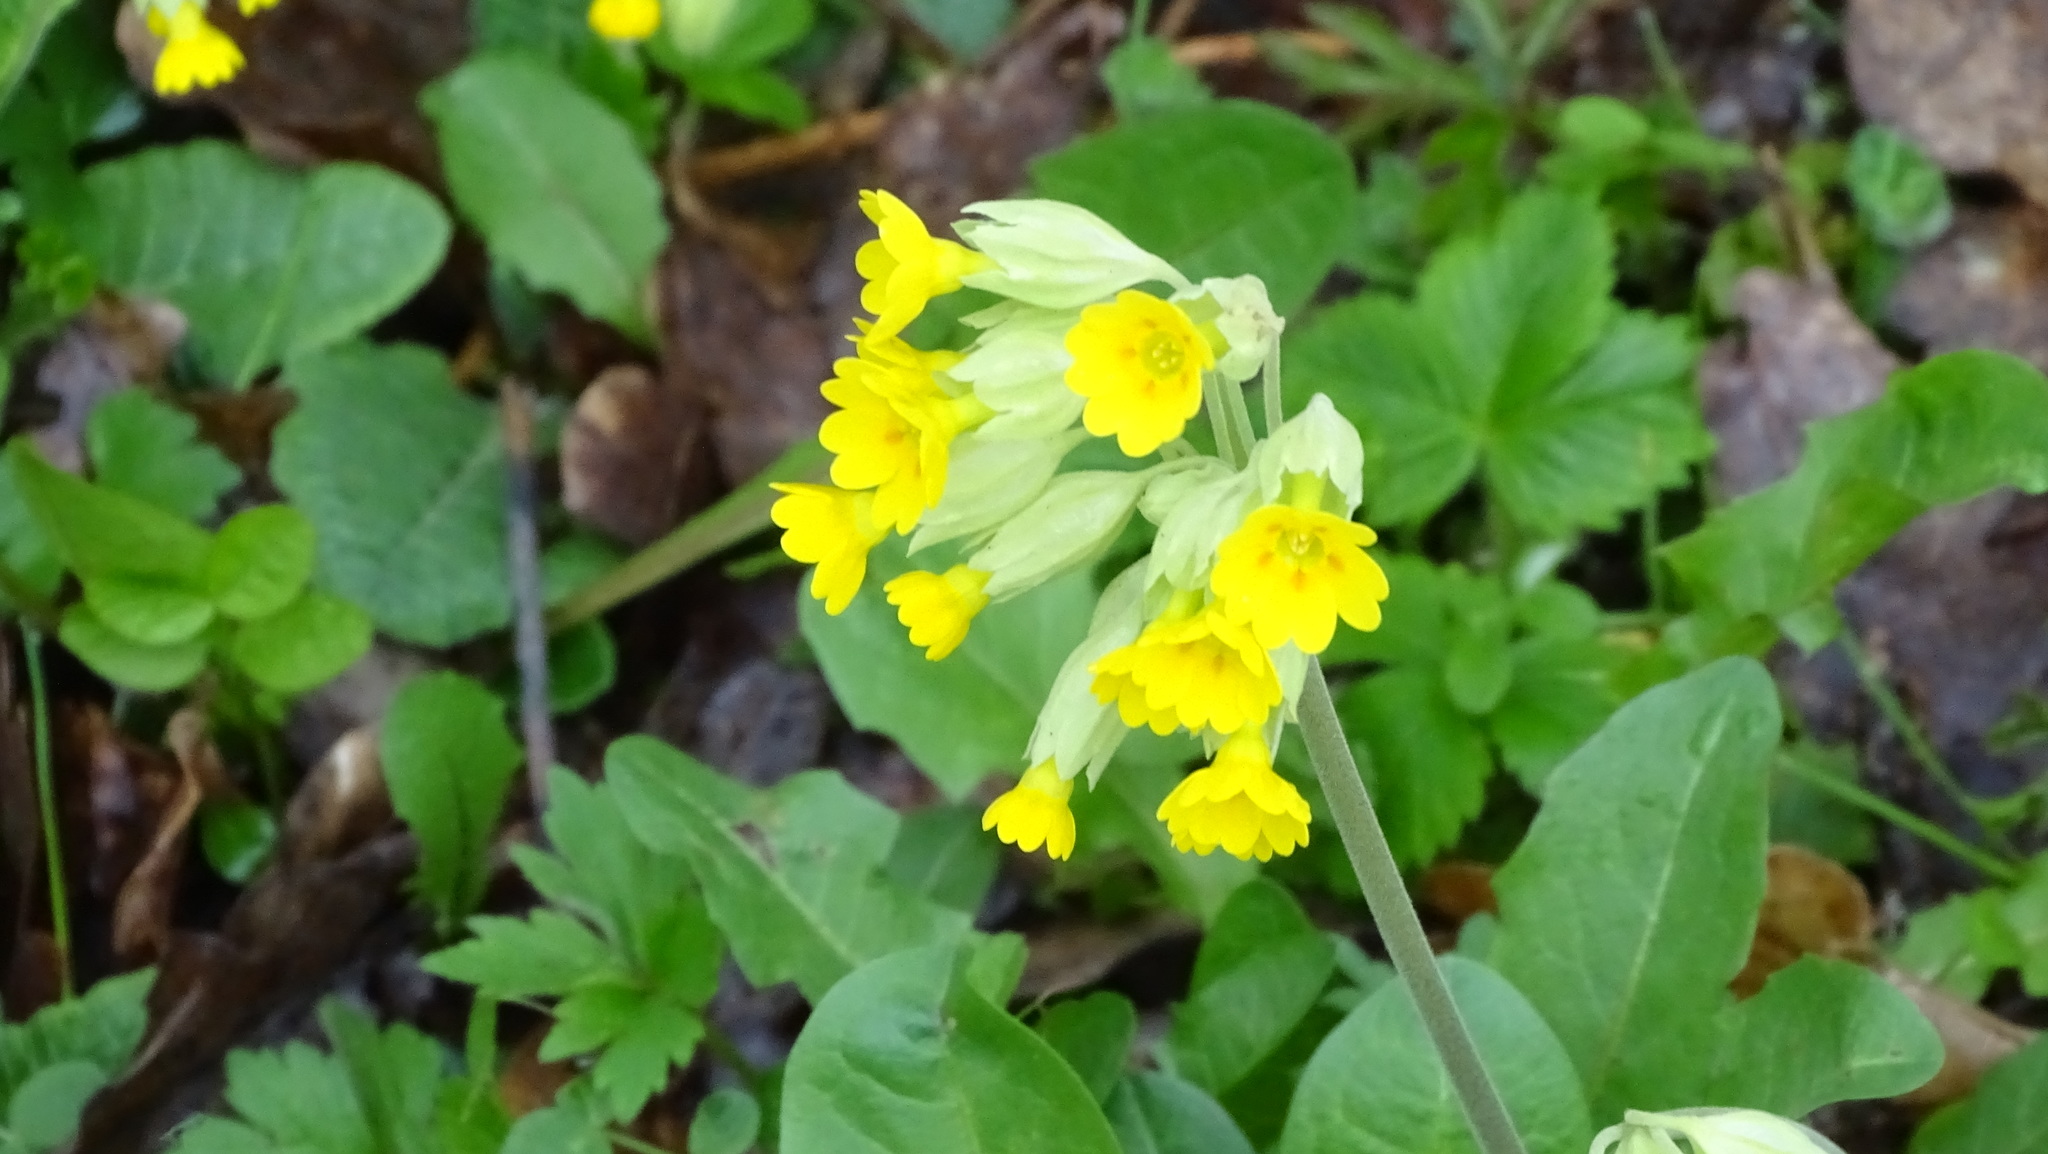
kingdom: Plantae
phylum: Tracheophyta
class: Magnoliopsida
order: Ericales
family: Primulaceae
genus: Primula
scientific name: Primula elatior
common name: Oxlip
